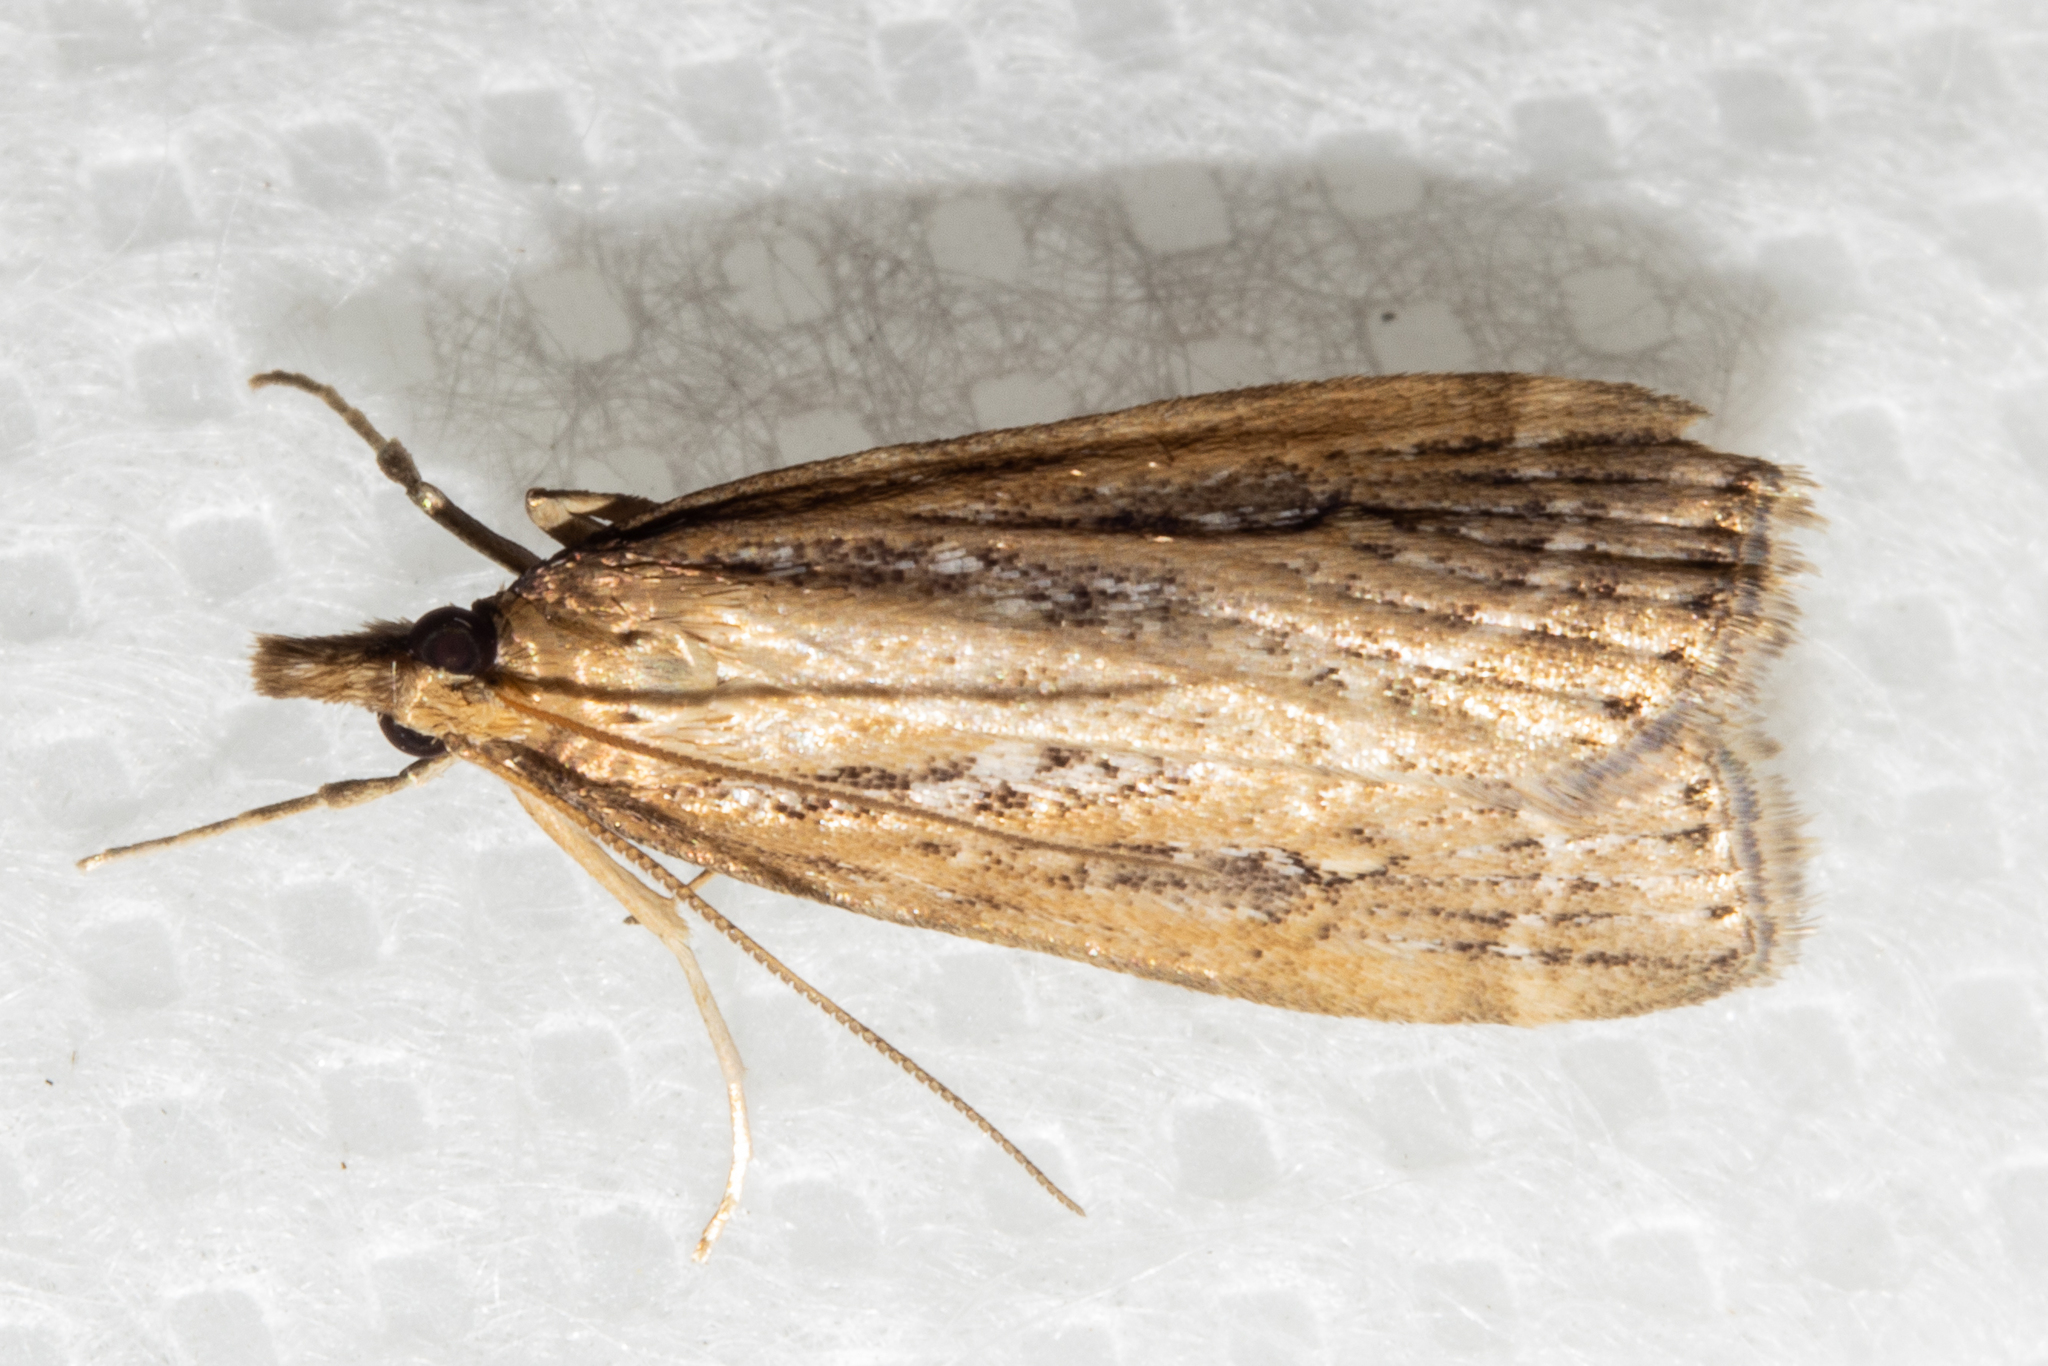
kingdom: Animalia
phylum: Arthropoda
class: Insecta
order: Lepidoptera
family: Crambidae
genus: Eudonia
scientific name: Eudonia octophora
